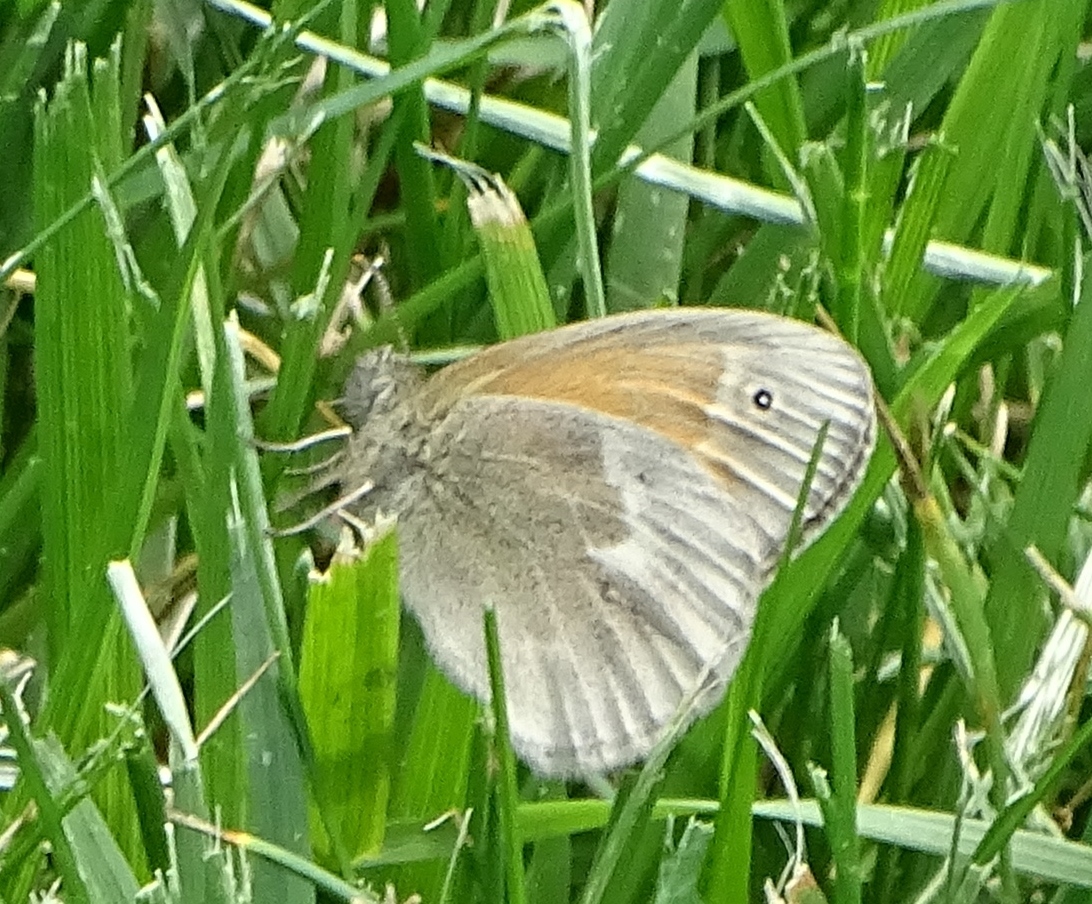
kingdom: Animalia
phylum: Arthropoda
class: Insecta
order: Lepidoptera
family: Nymphalidae
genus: Coenonympha
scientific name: Coenonympha california
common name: Common ringlet
